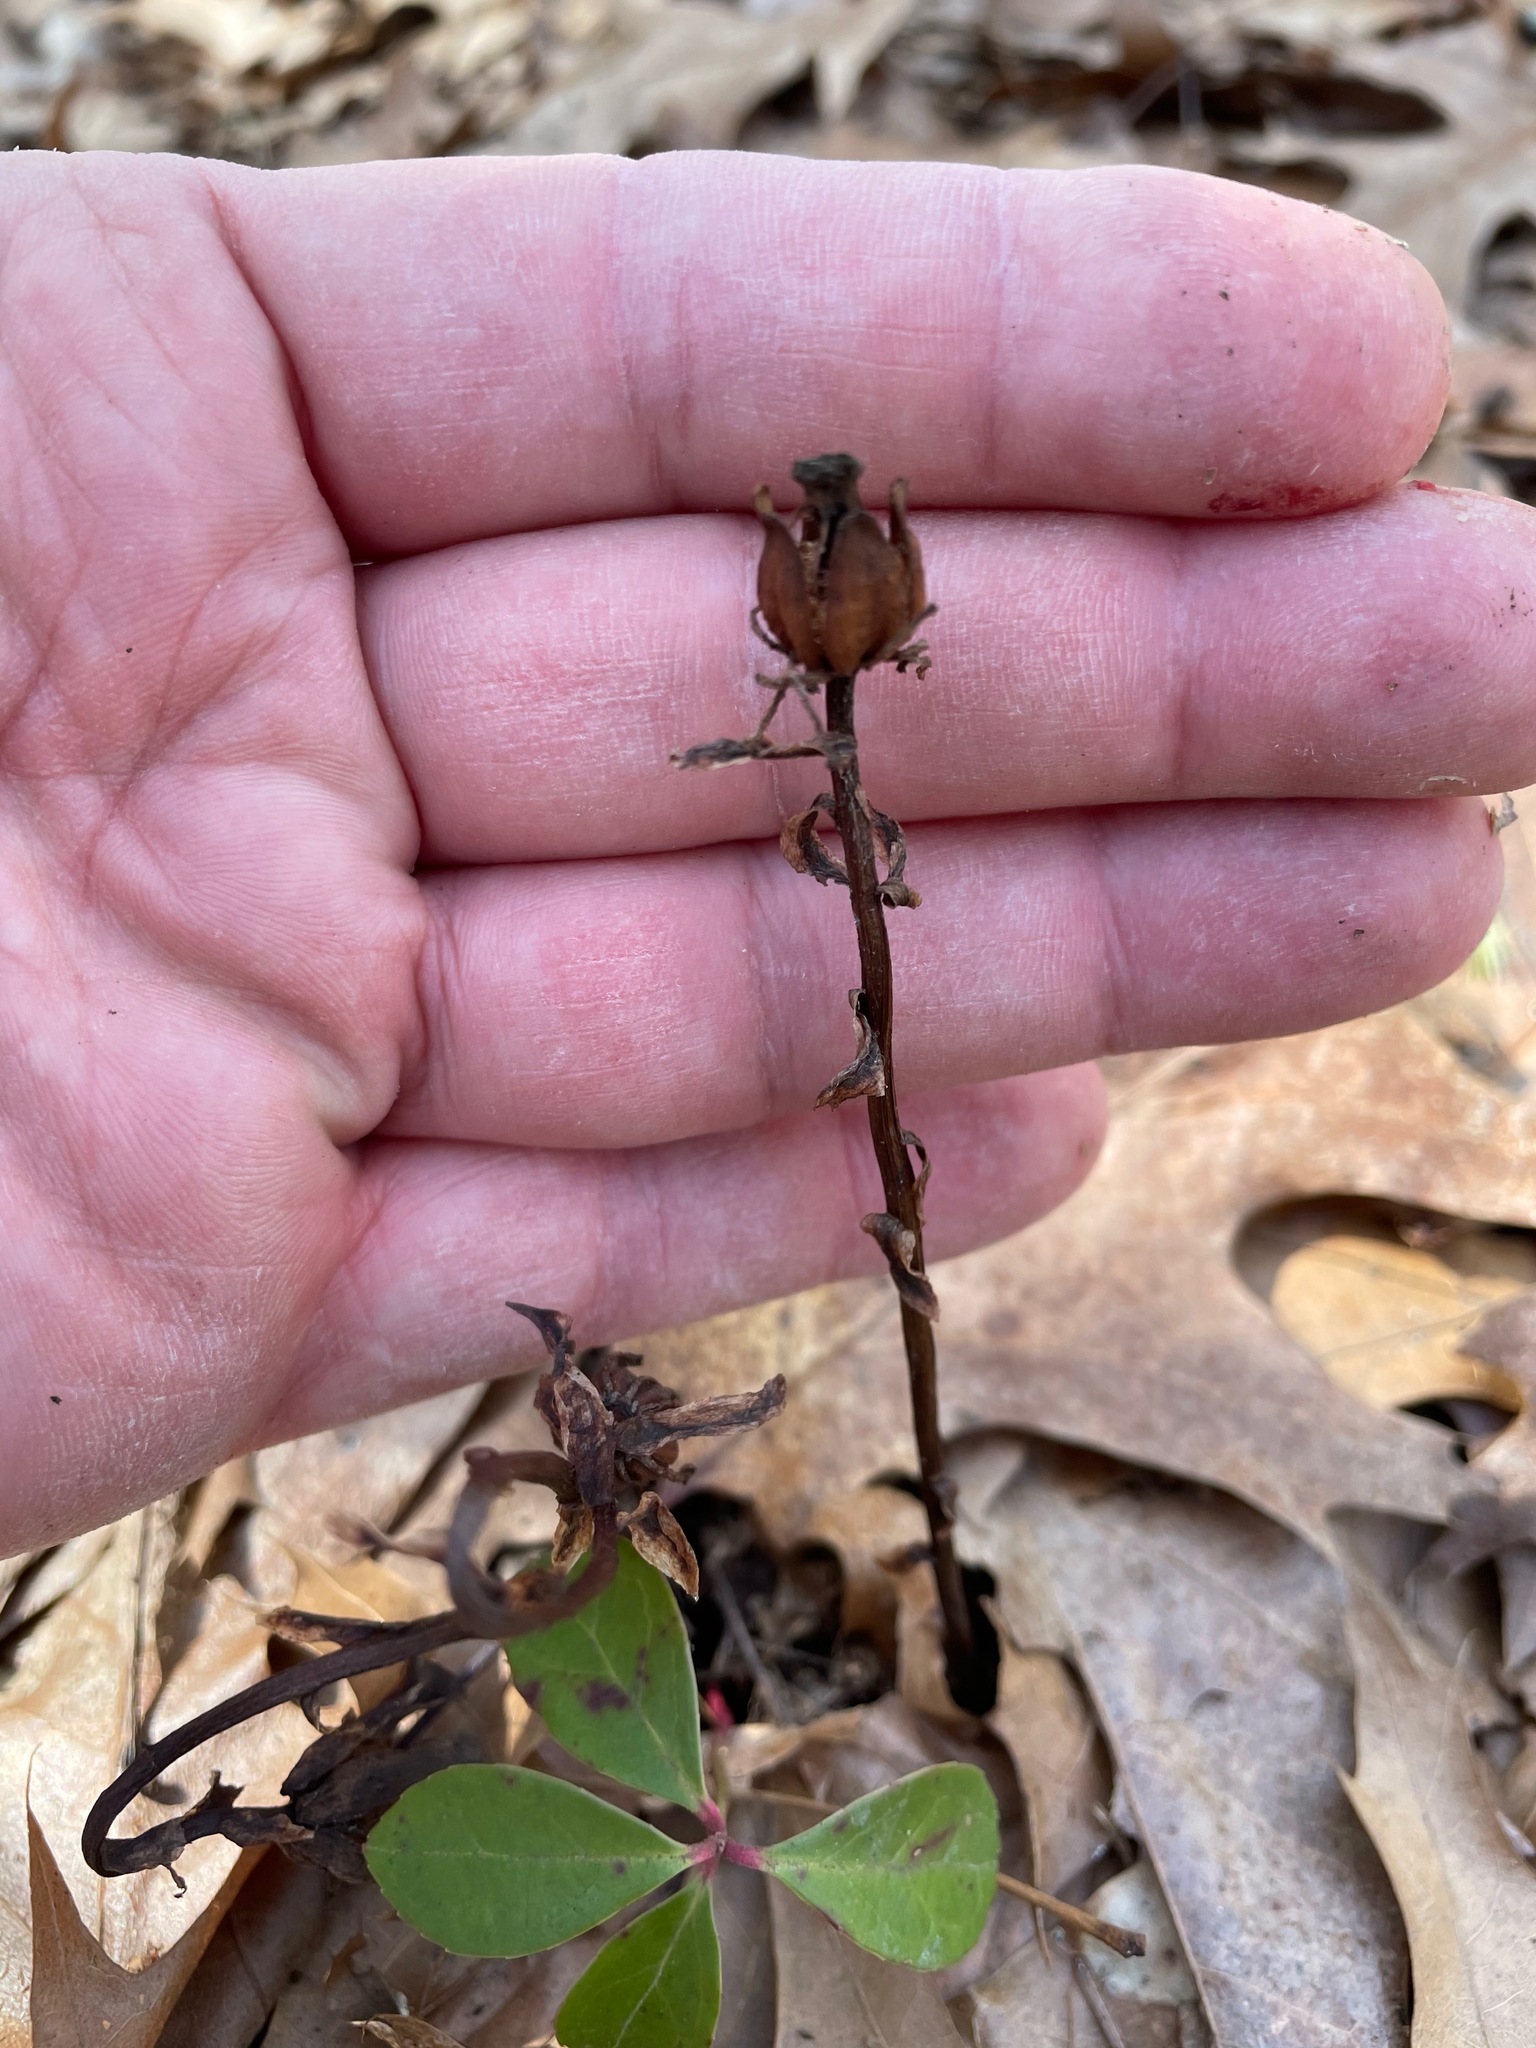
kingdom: Plantae
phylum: Tracheophyta
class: Magnoliopsida
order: Ericales
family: Ericaceae
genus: Monotropa
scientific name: Monotropa uniflora
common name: Convulsion root
